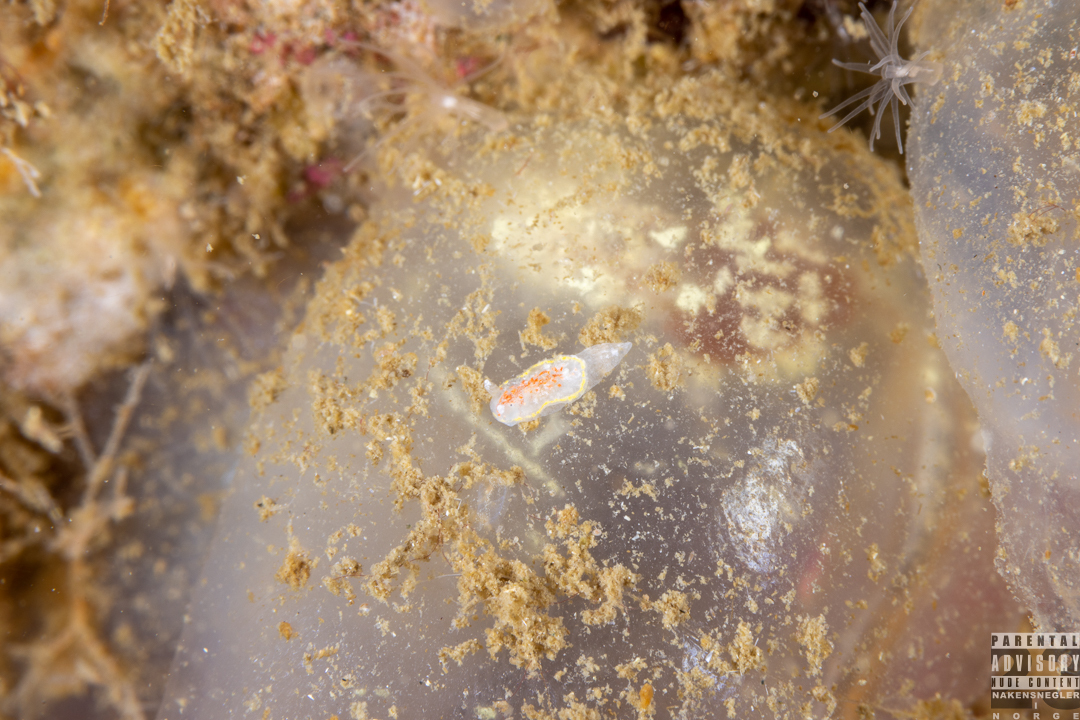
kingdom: Animalia
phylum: Mollusca
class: Gastropoda
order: Nudibranchia
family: Calycidorididae
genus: Diaphorodoris
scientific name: Diaphorodoris luteocincta
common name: Fried egg nudibranch
